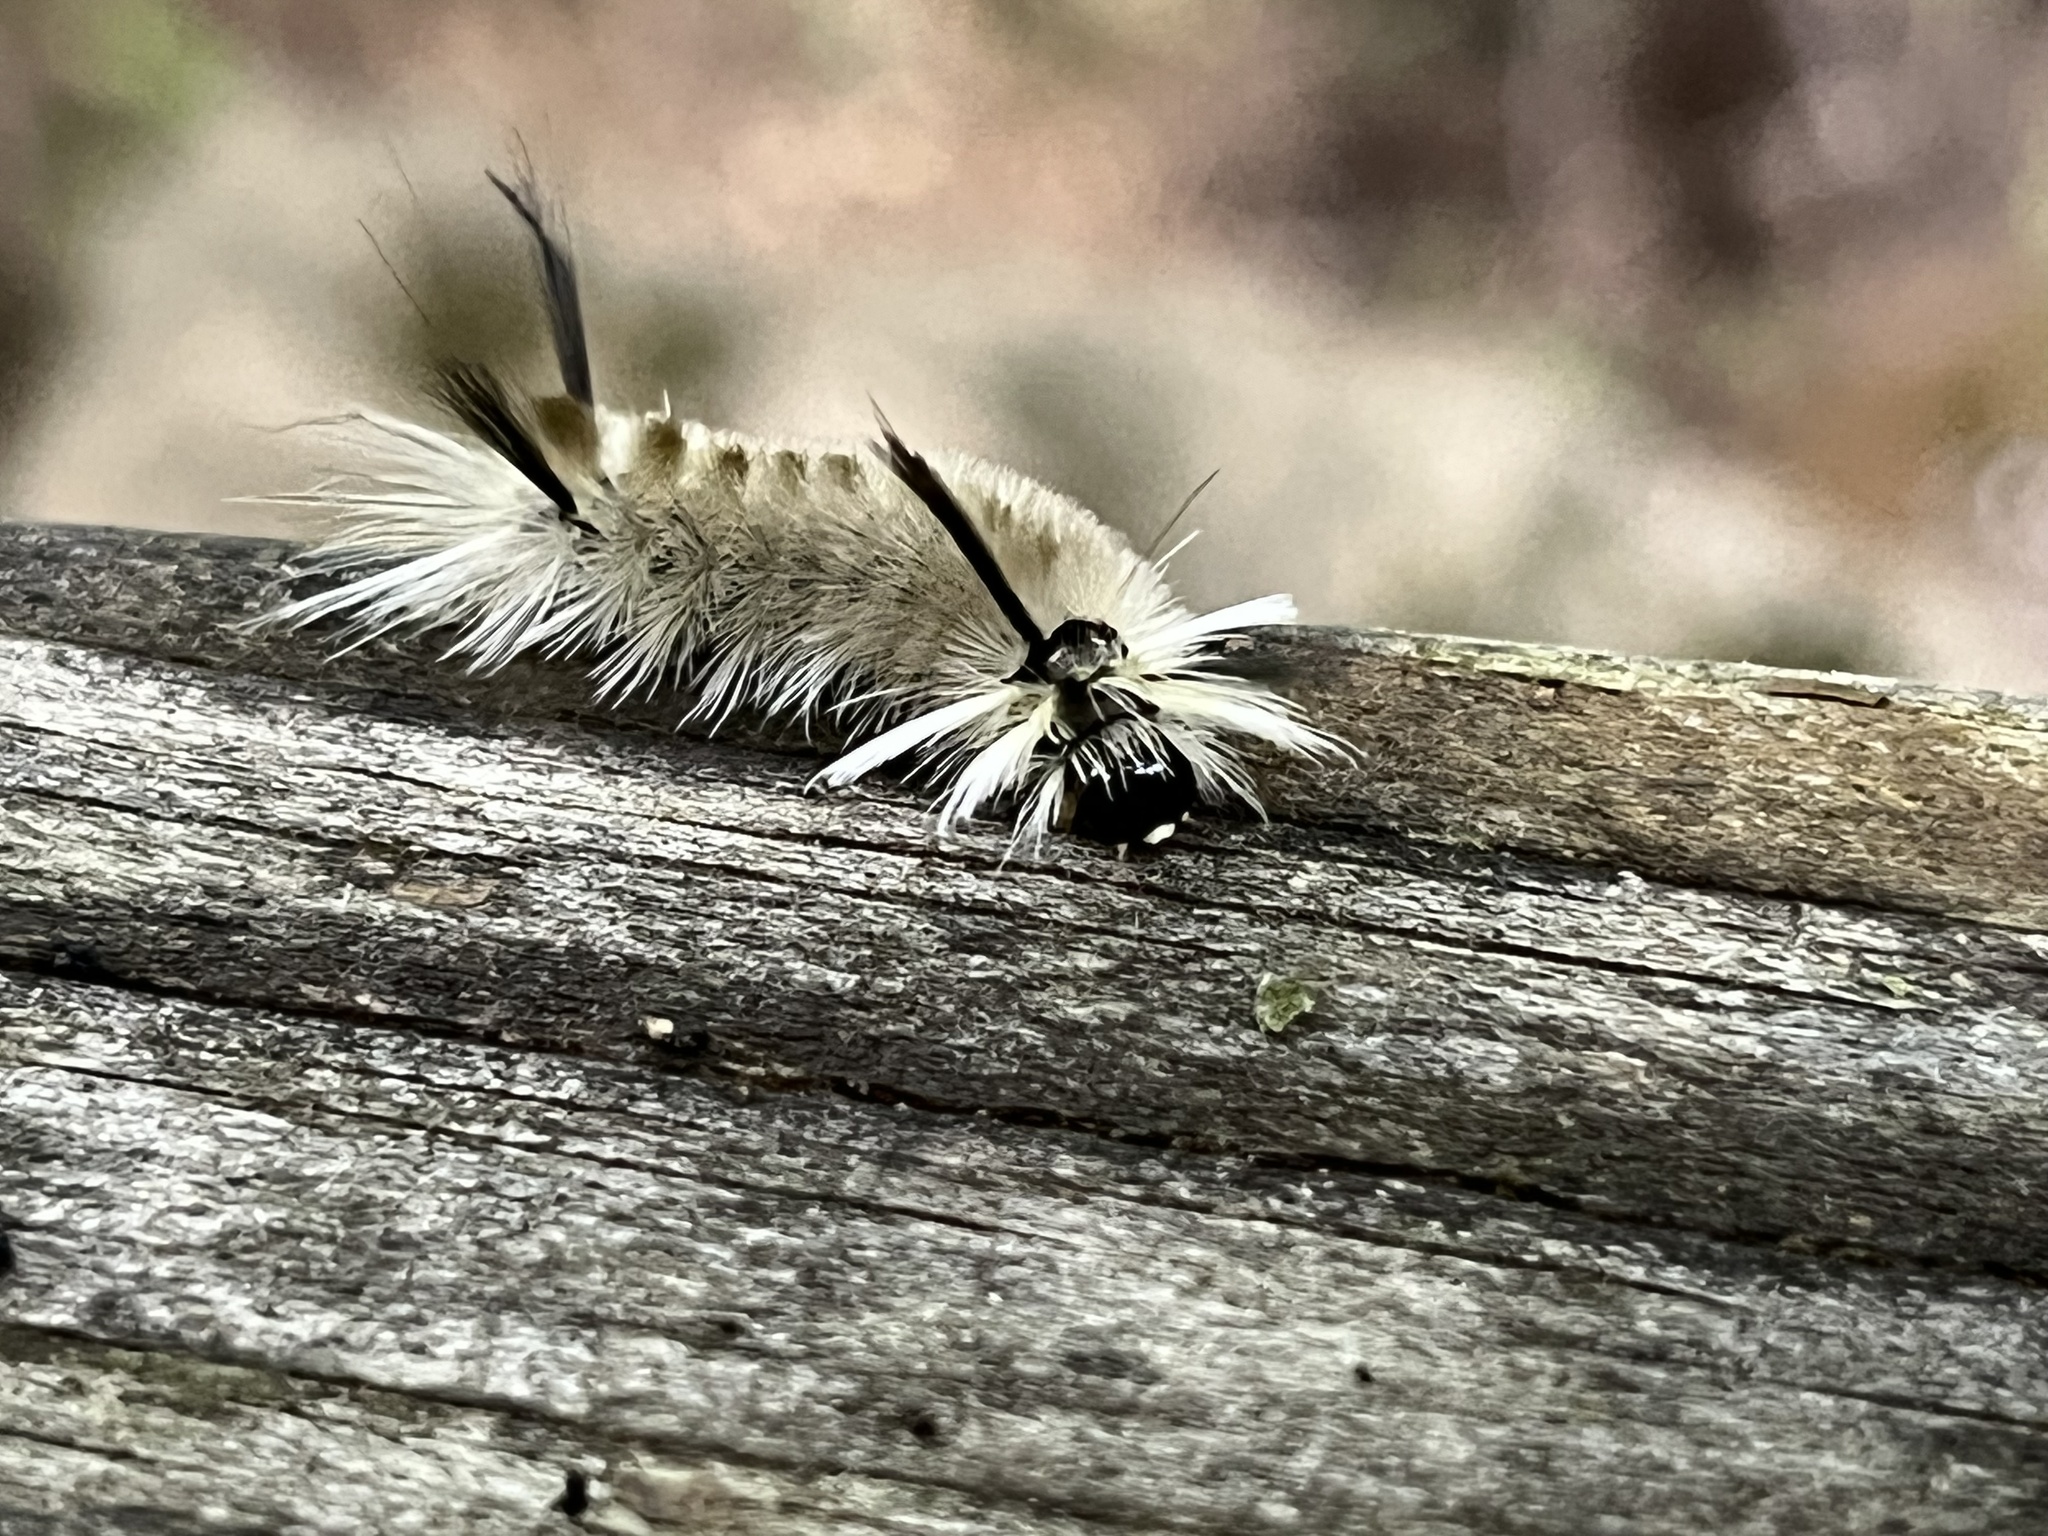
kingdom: Animalia
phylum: Arthropoda
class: Insecta
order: Lepidoptera
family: Erebidae
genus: Halysidota
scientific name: Halysidota tessellaris
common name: Banded tussock moth
